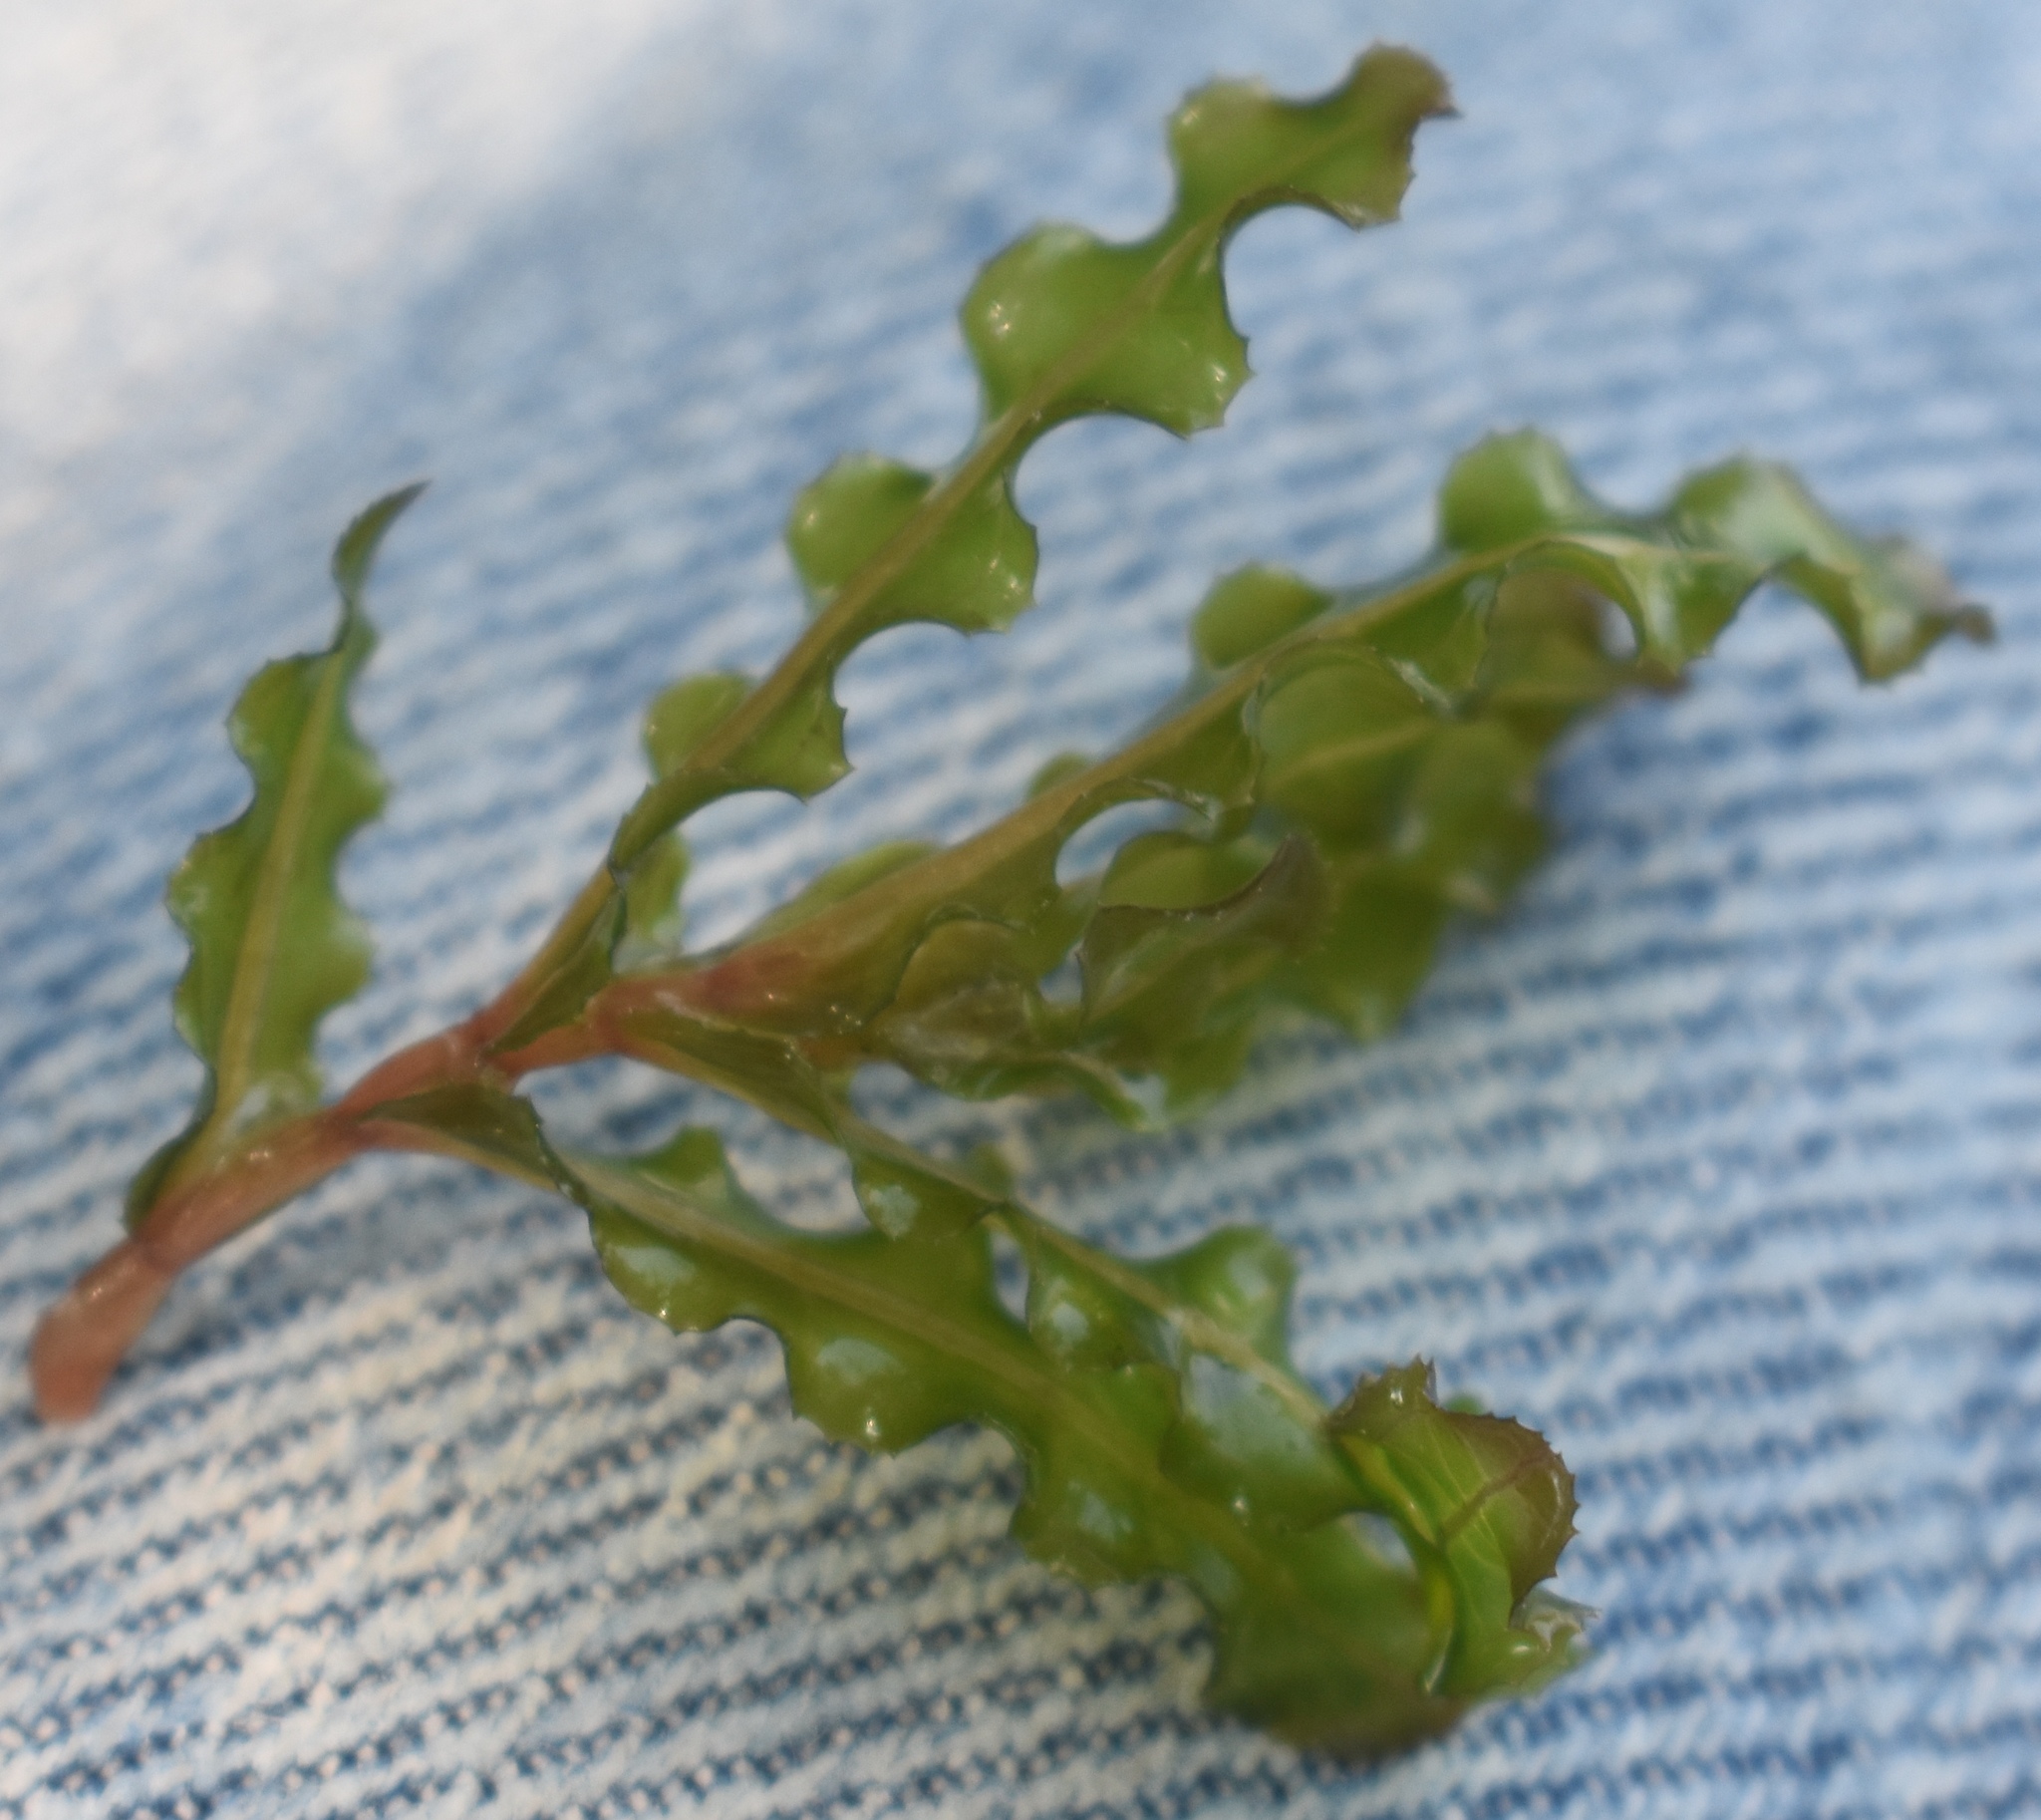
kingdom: Plantae
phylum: Tracheophyta
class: Liliopsida
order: Alismatales
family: Potamogetonaceae
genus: Potamogeton
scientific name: Potamogeton crispus
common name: Curled pondweed
